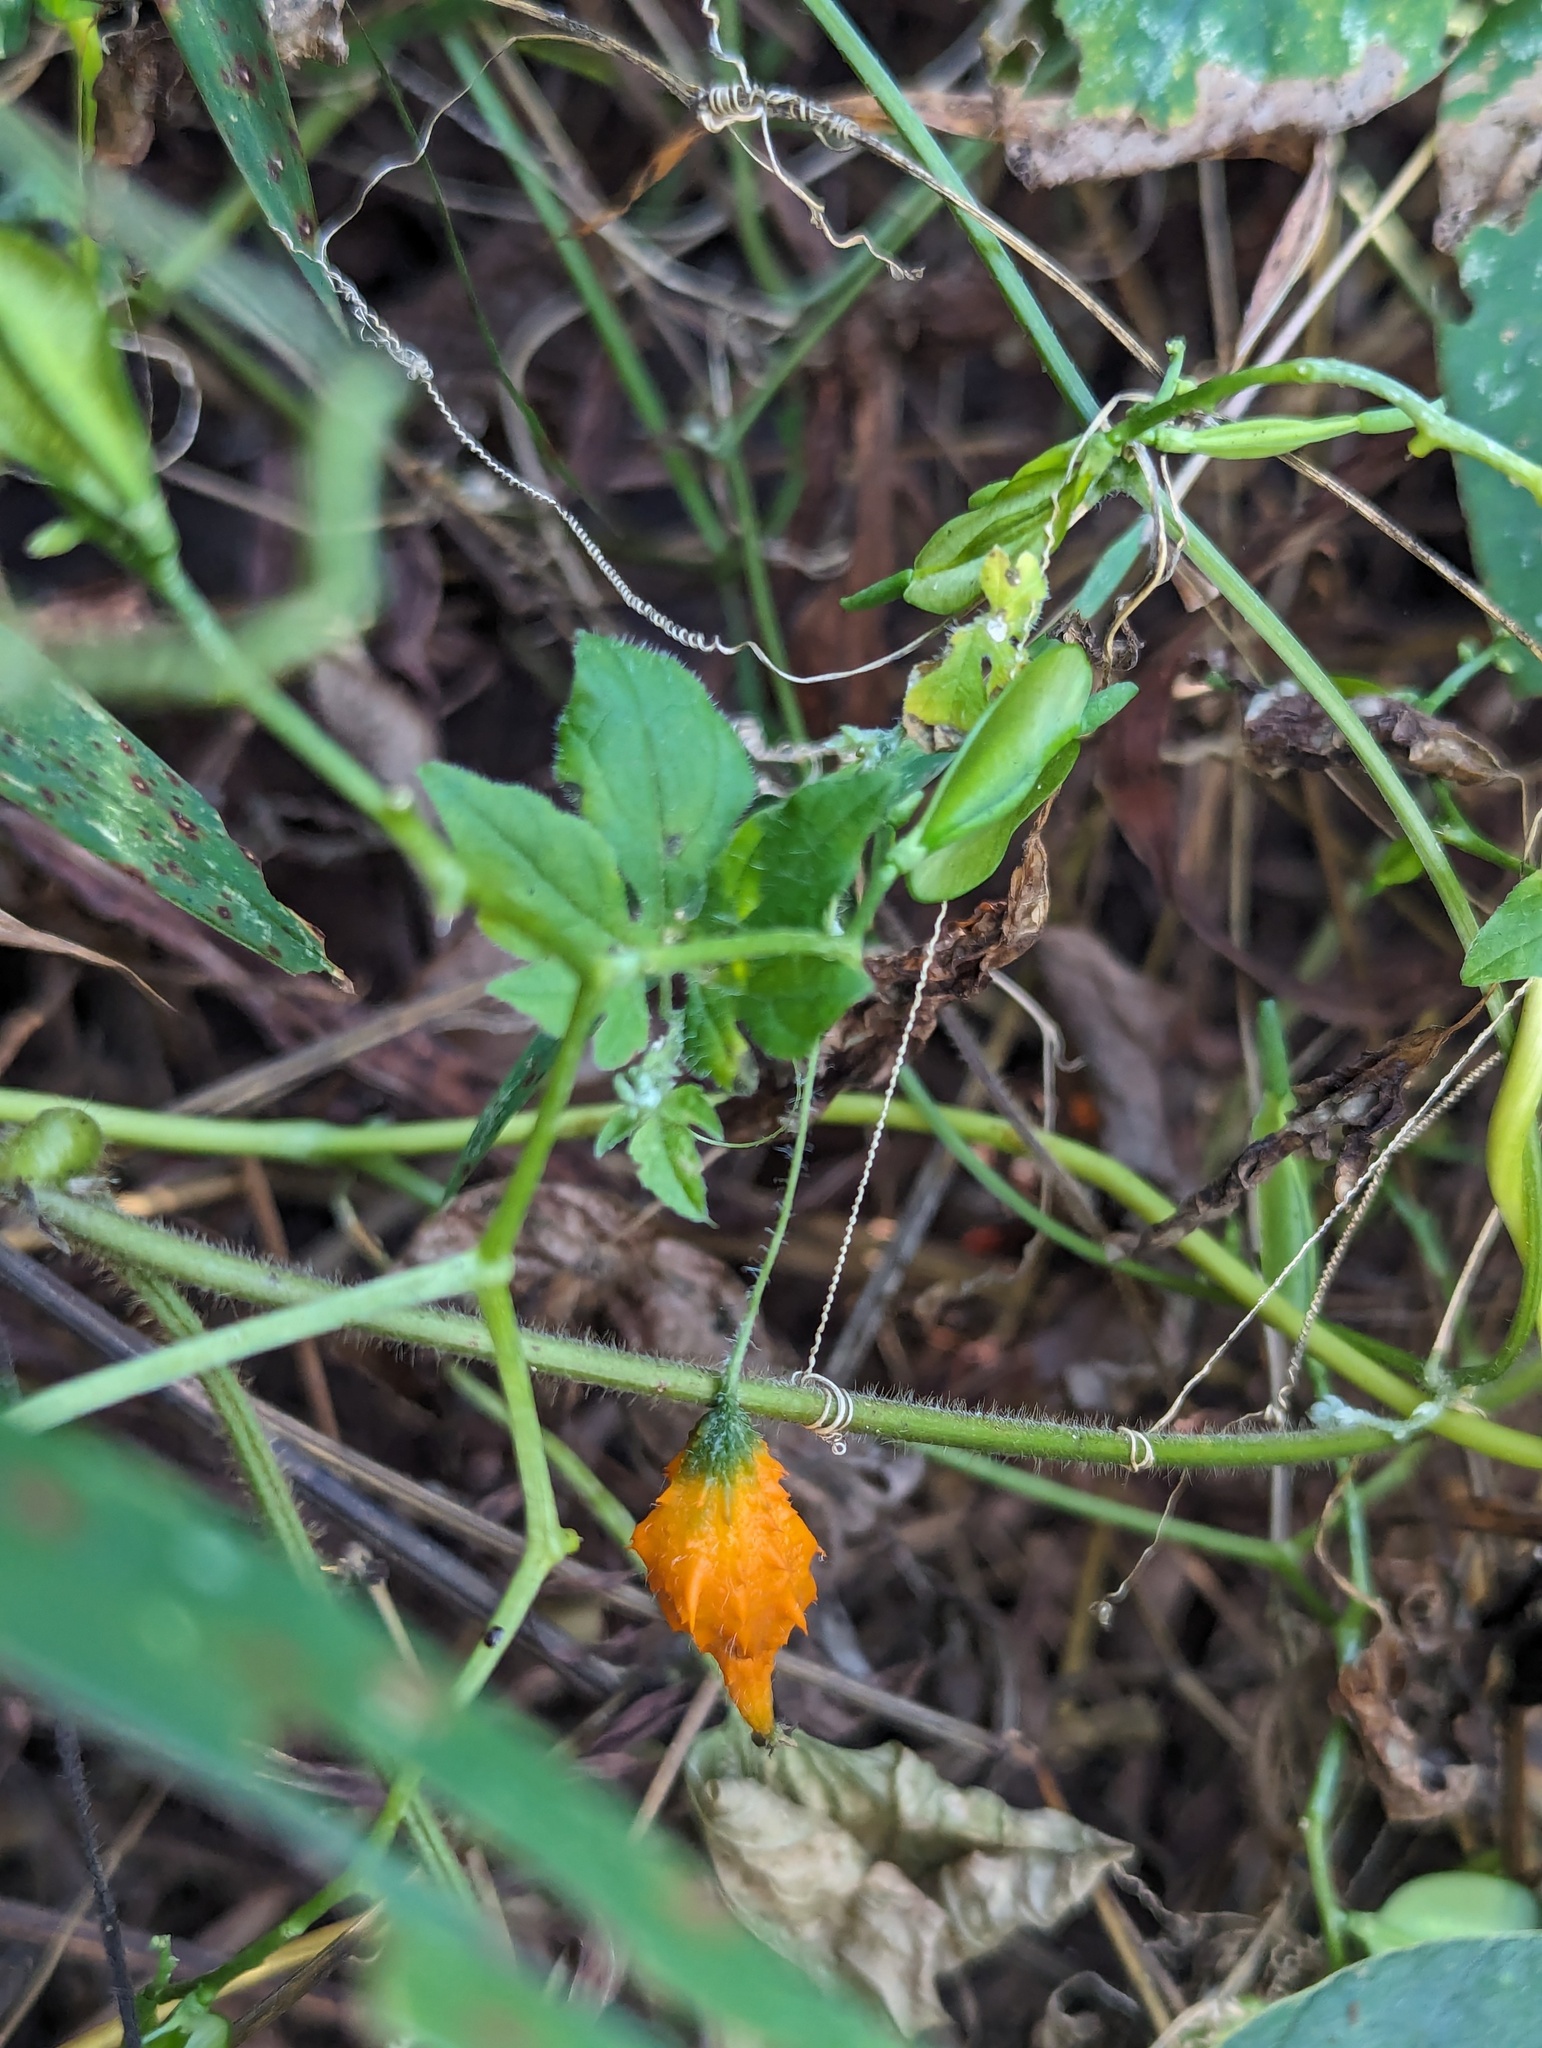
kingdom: Plantae
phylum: Tracheophyta
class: Magnoliopsida
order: Cucurbitales
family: Cucurbitaceae
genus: Momordica
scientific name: Momordica charantia
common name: Balsampear
